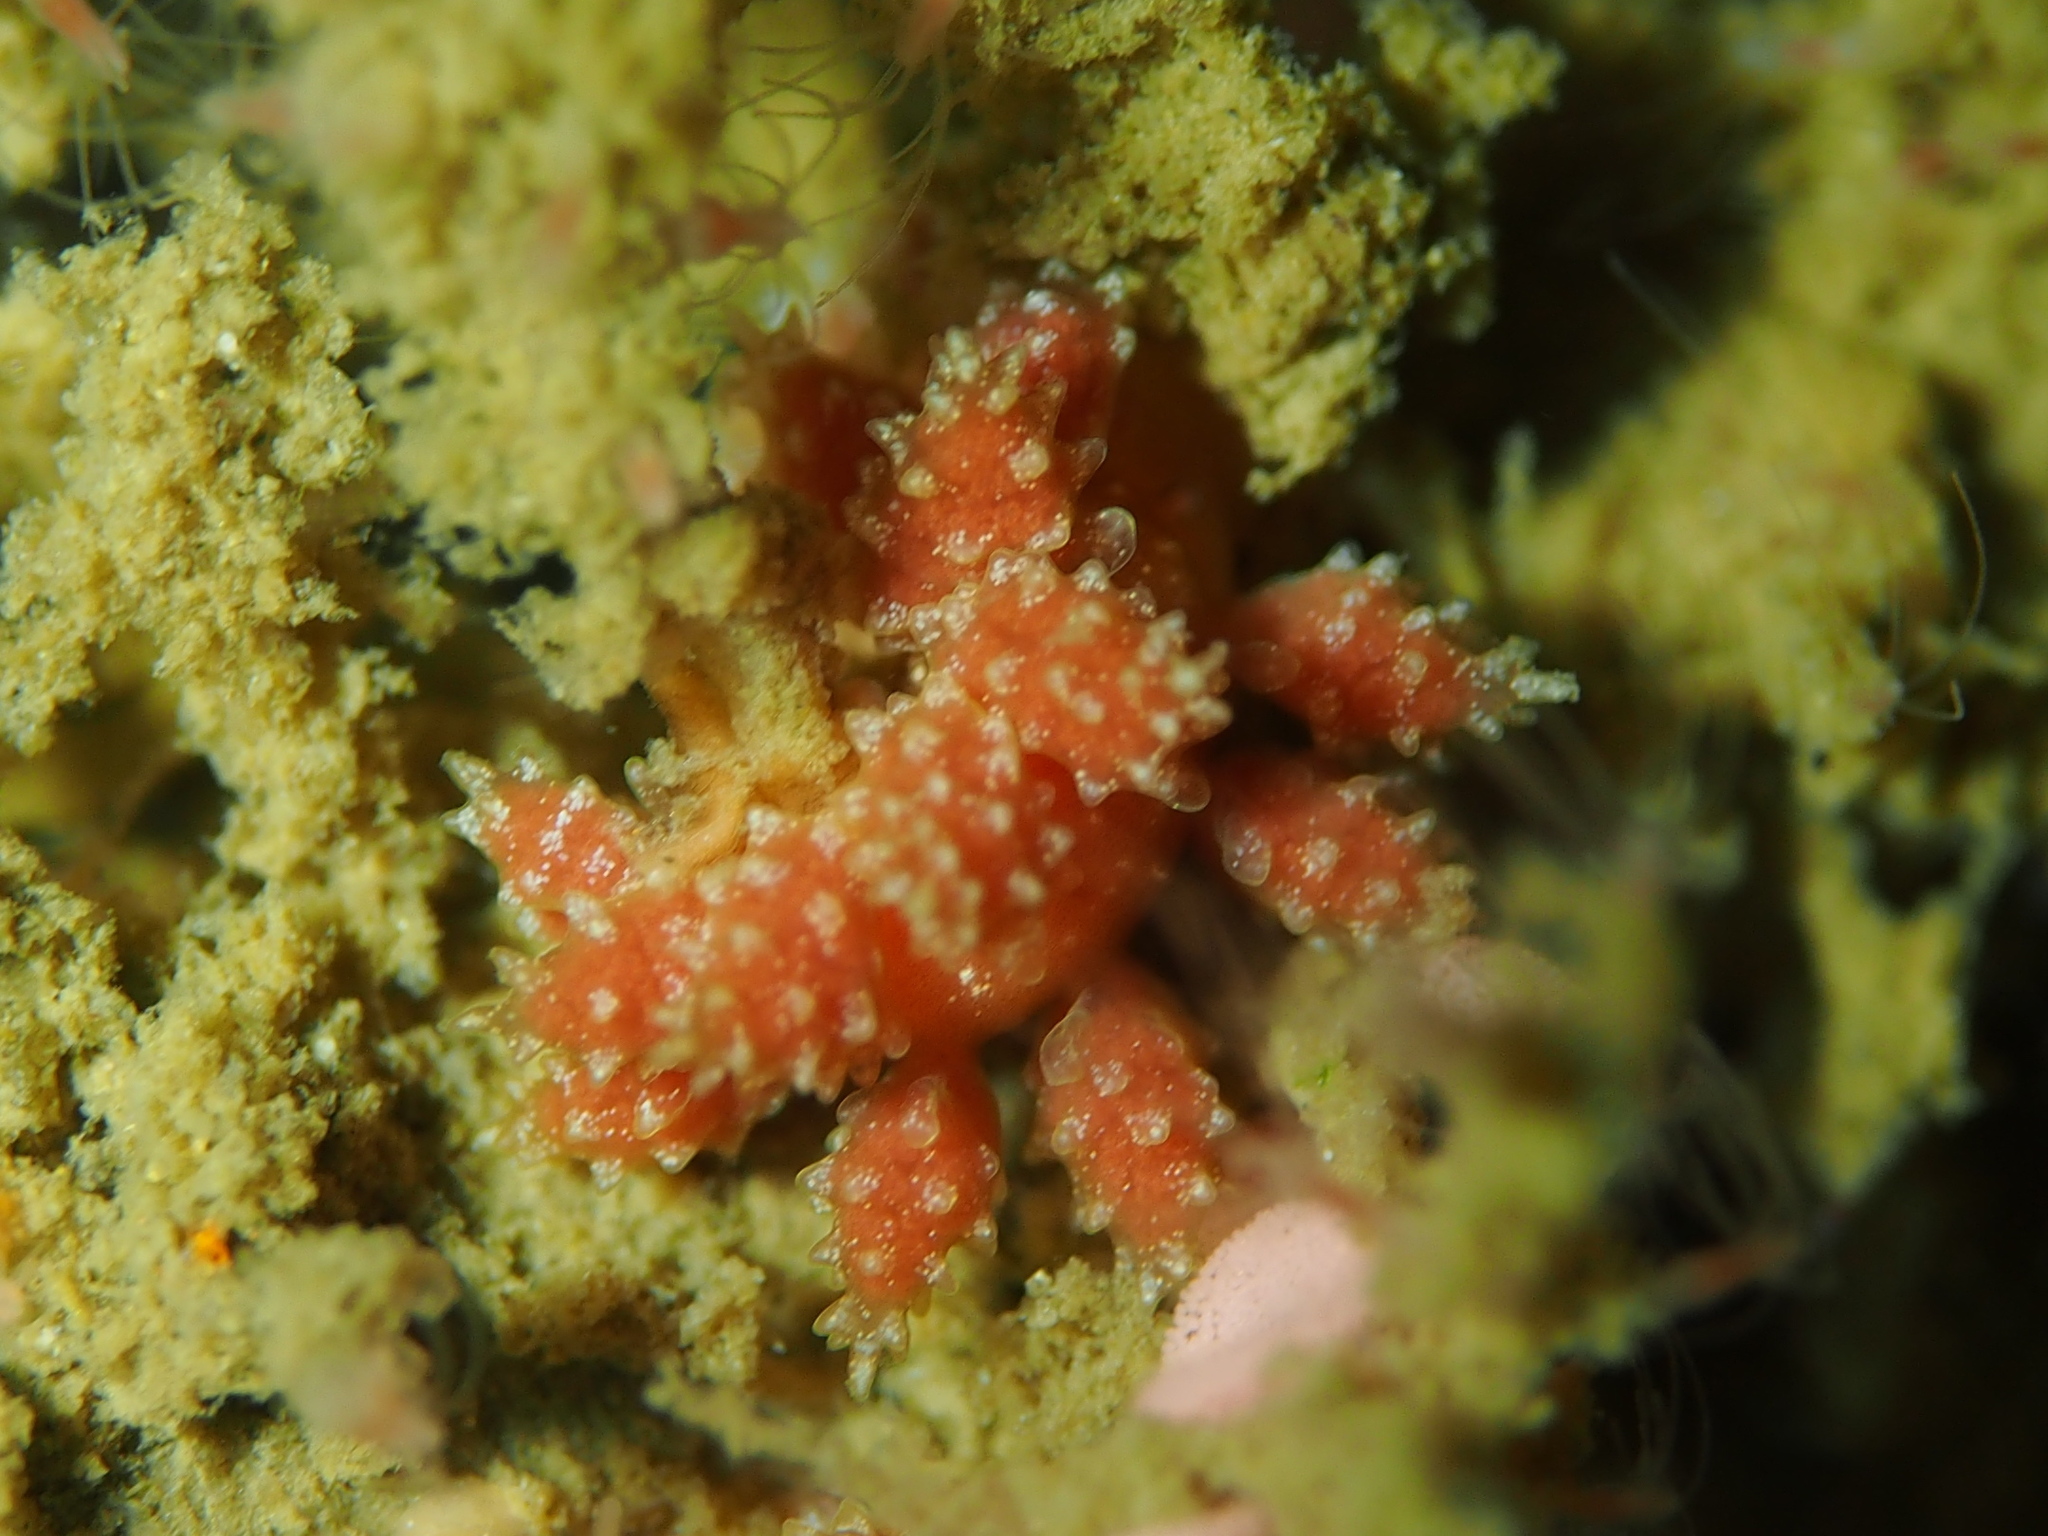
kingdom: Animalia
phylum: Mollusca
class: Gastropoda
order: Nudibranchia
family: Dotidae
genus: Doto
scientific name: Doto fragilis
